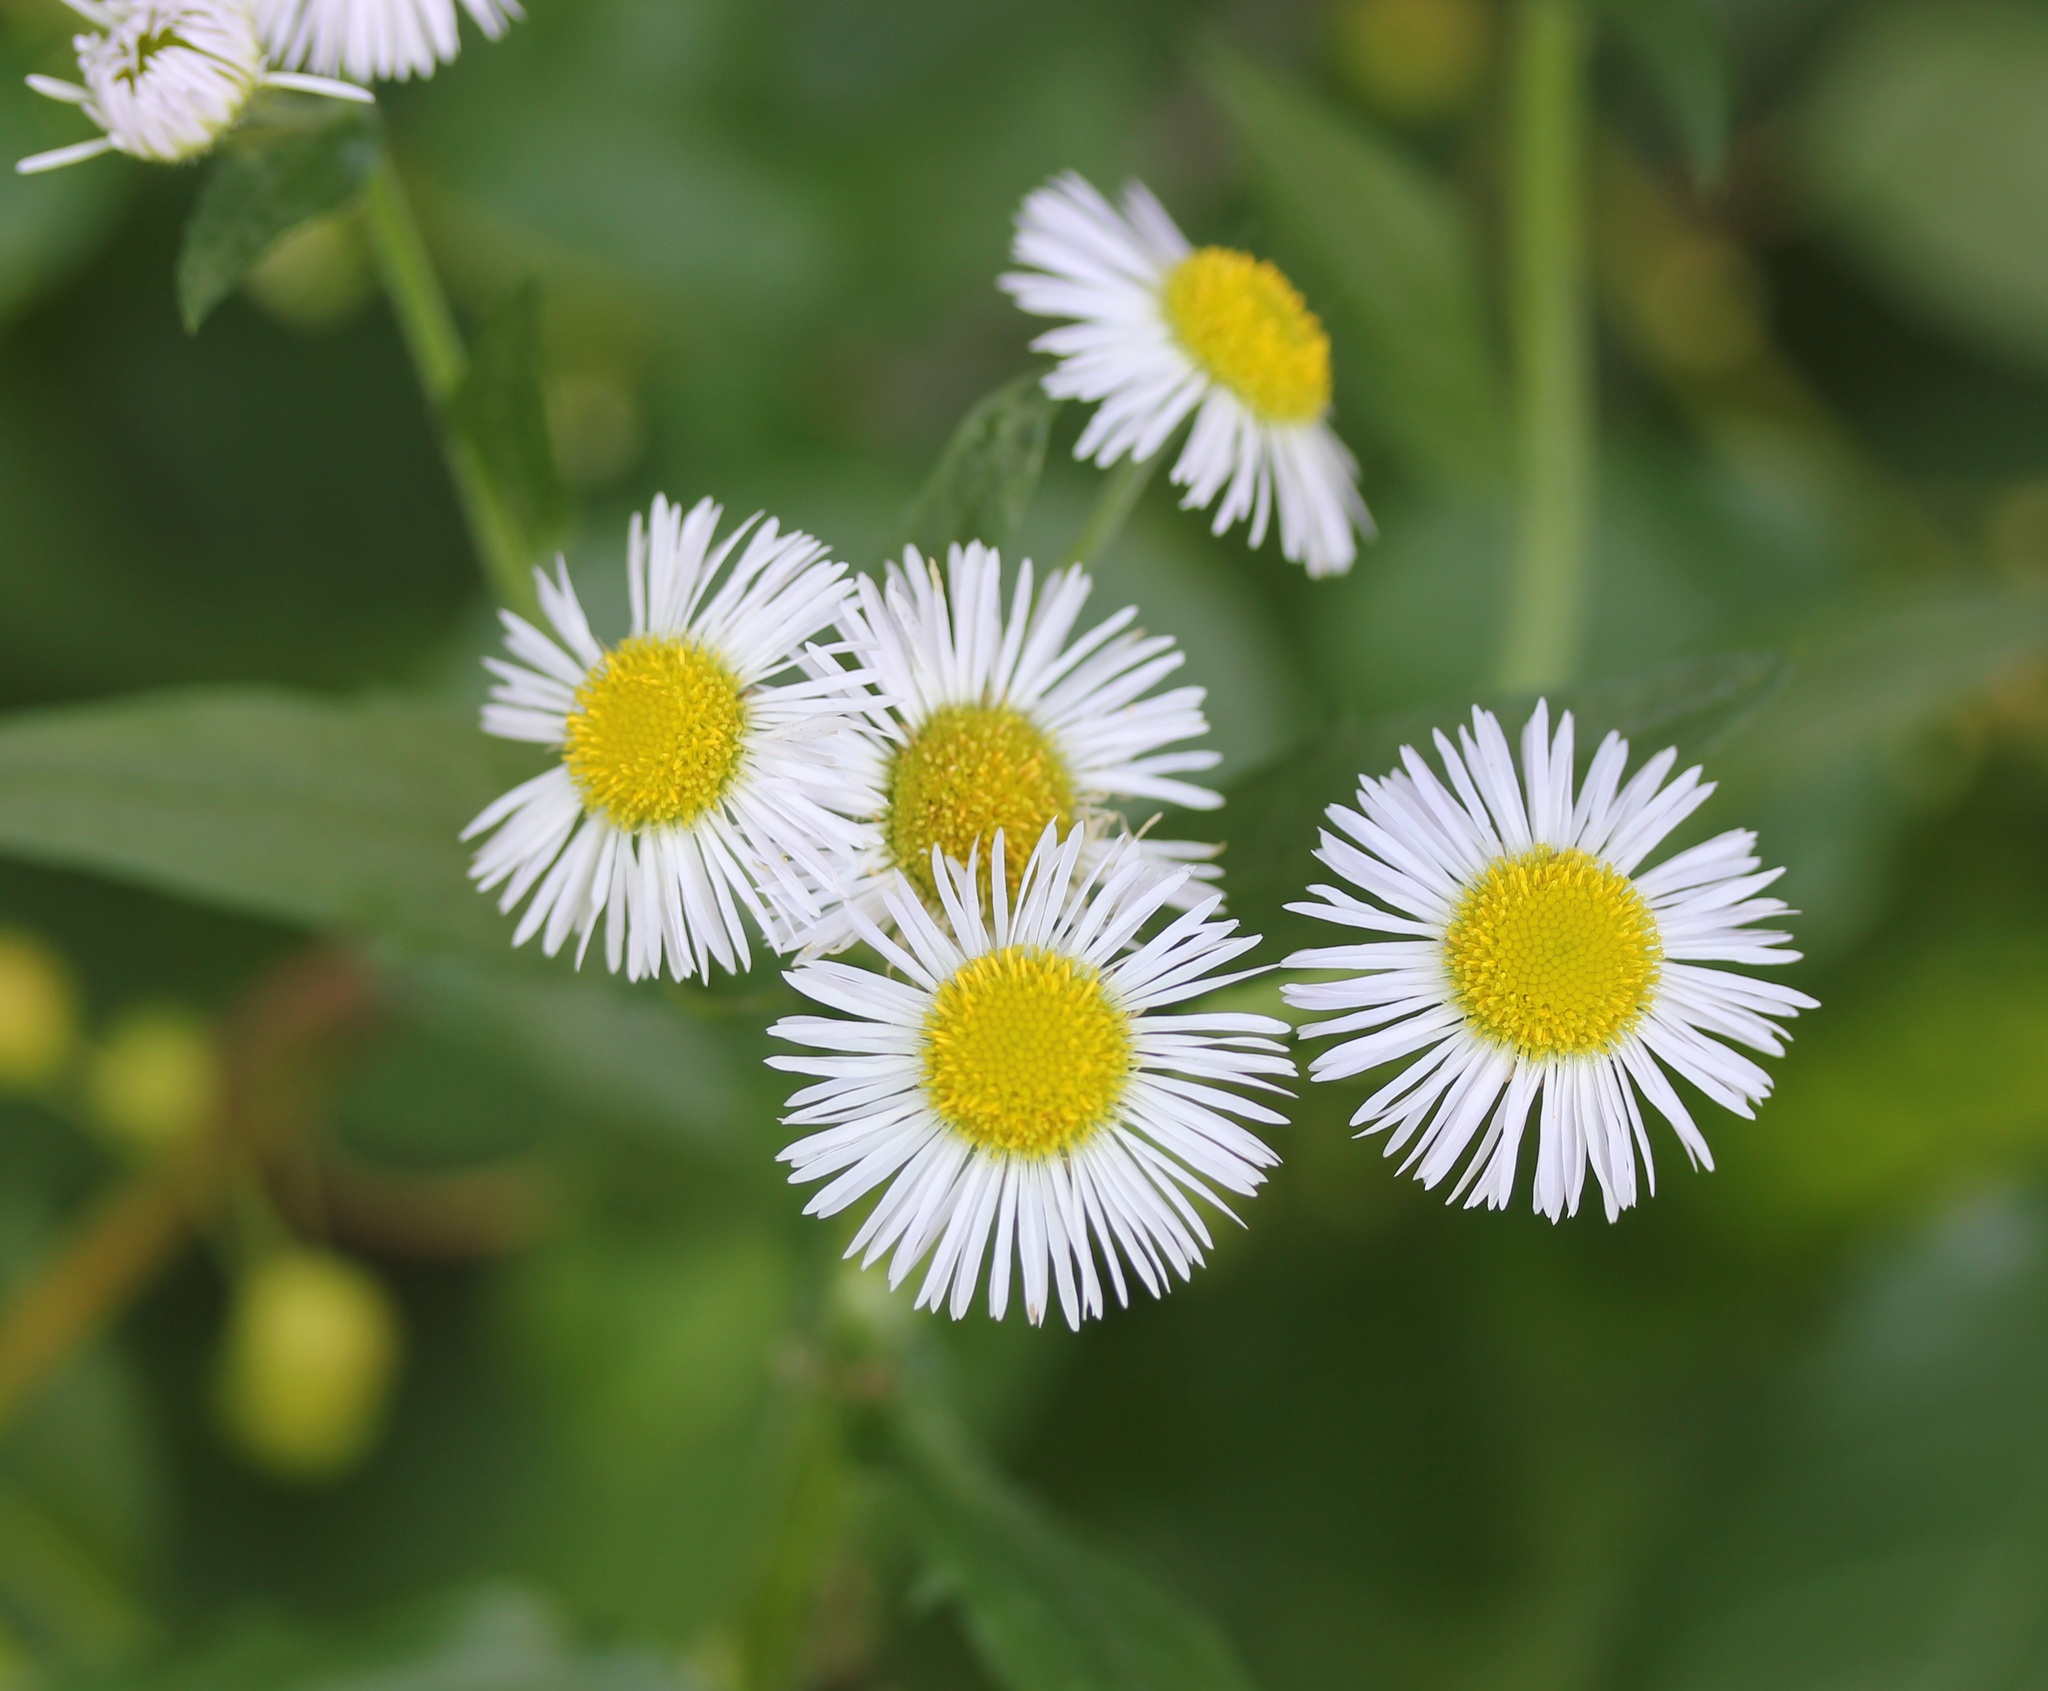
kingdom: Plantae
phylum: Tracheophyta
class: Magnoliopsida
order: Asterales
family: Asteraceae
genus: Erigeron
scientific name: Erigeron annuus
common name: Tall fleabane
